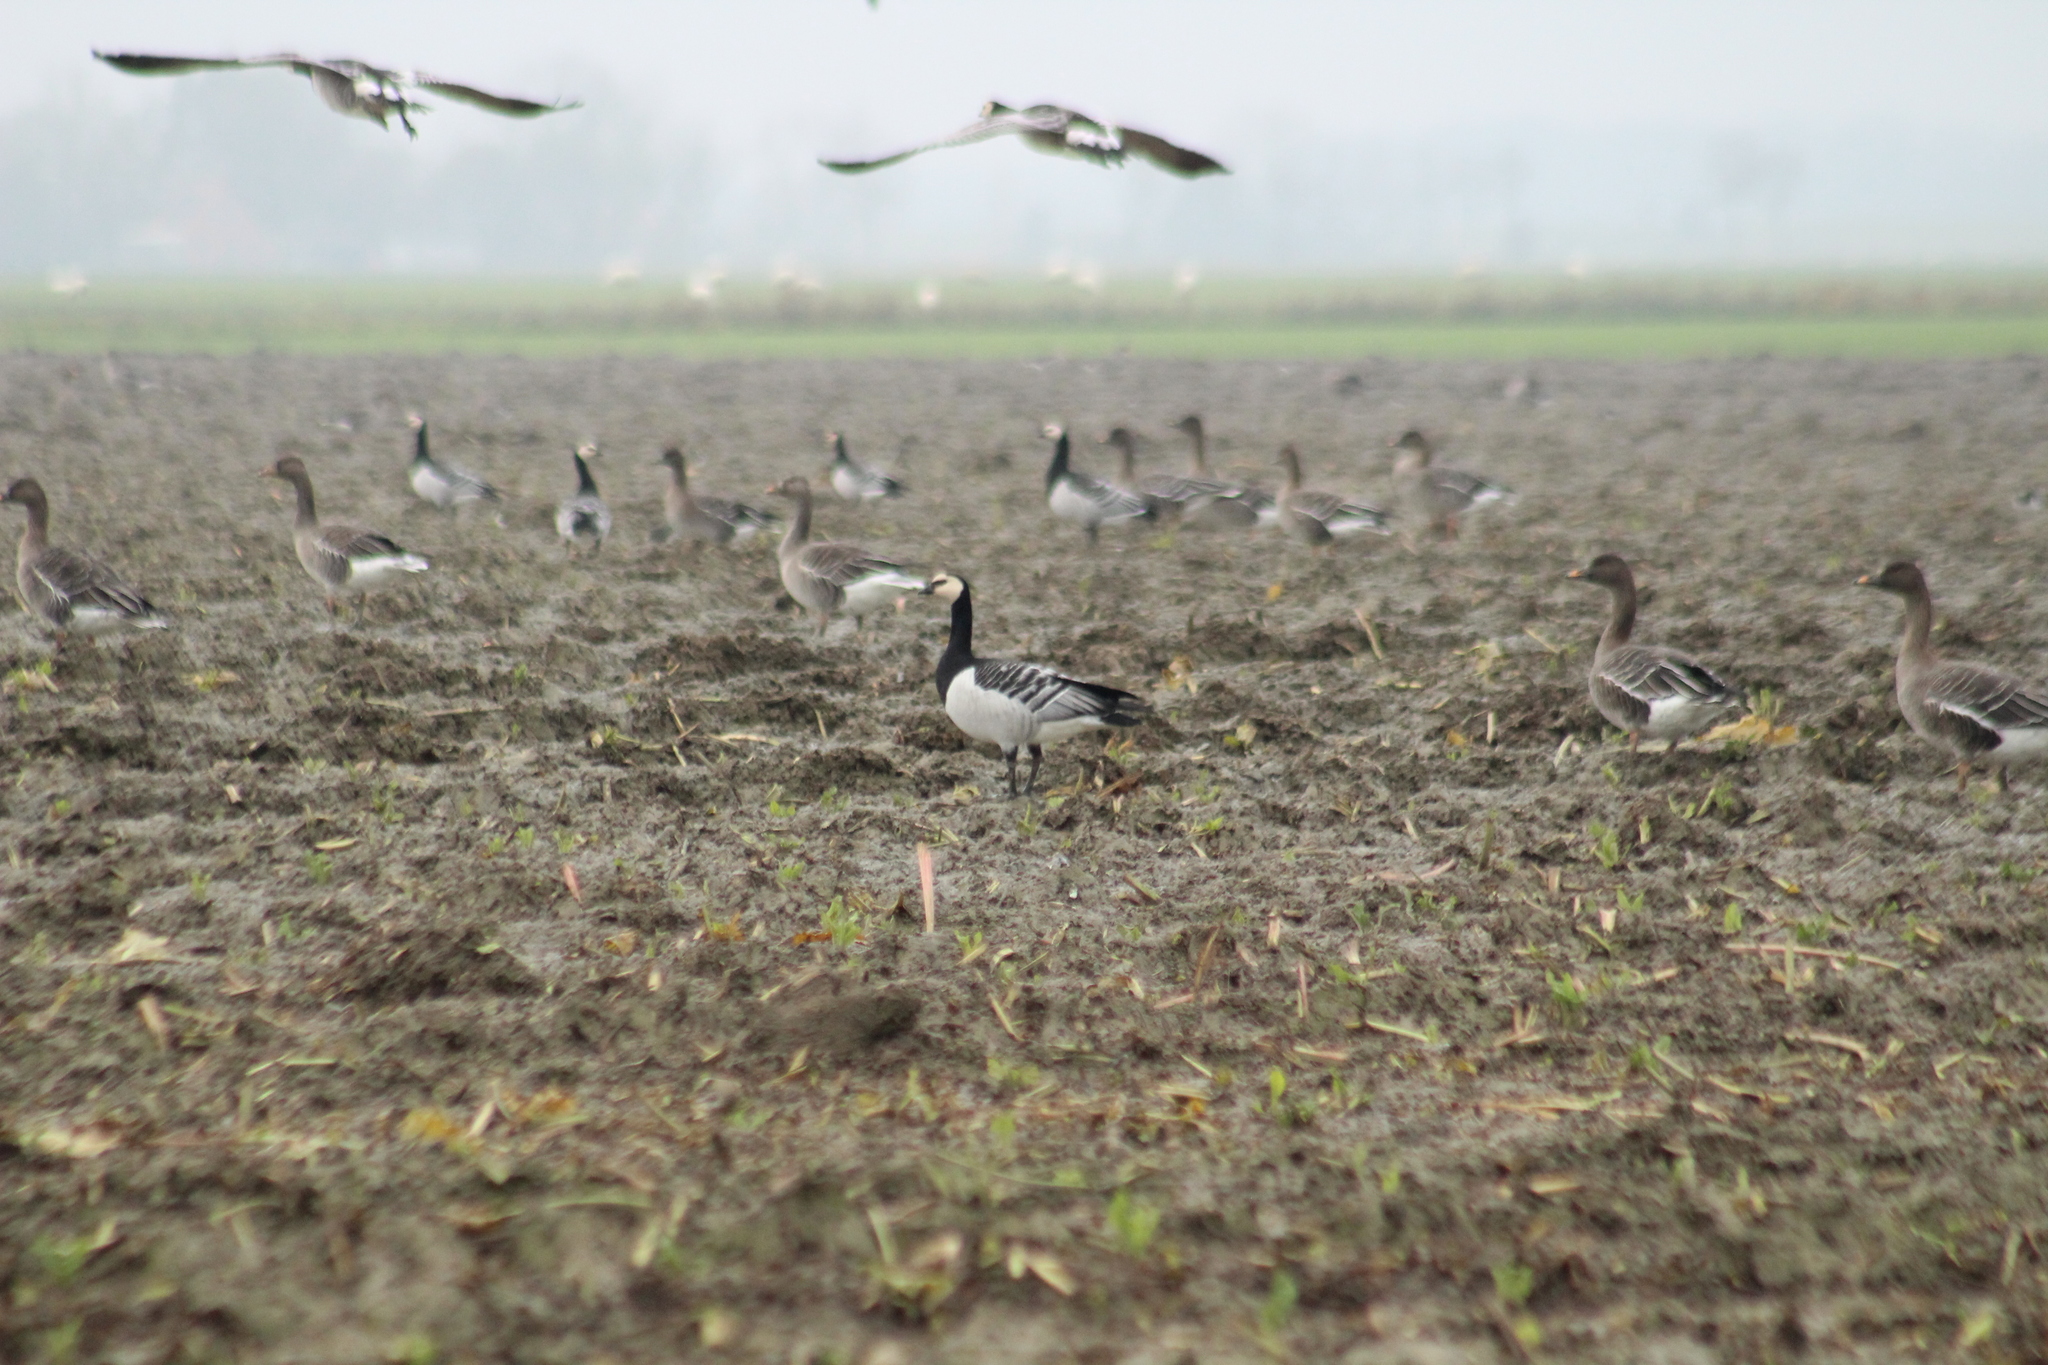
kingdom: Animalia
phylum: Chordata
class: Aves
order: Anseriformes
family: Anatidae
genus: Branta
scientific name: Branta leucopsis
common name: Barnacle goose
